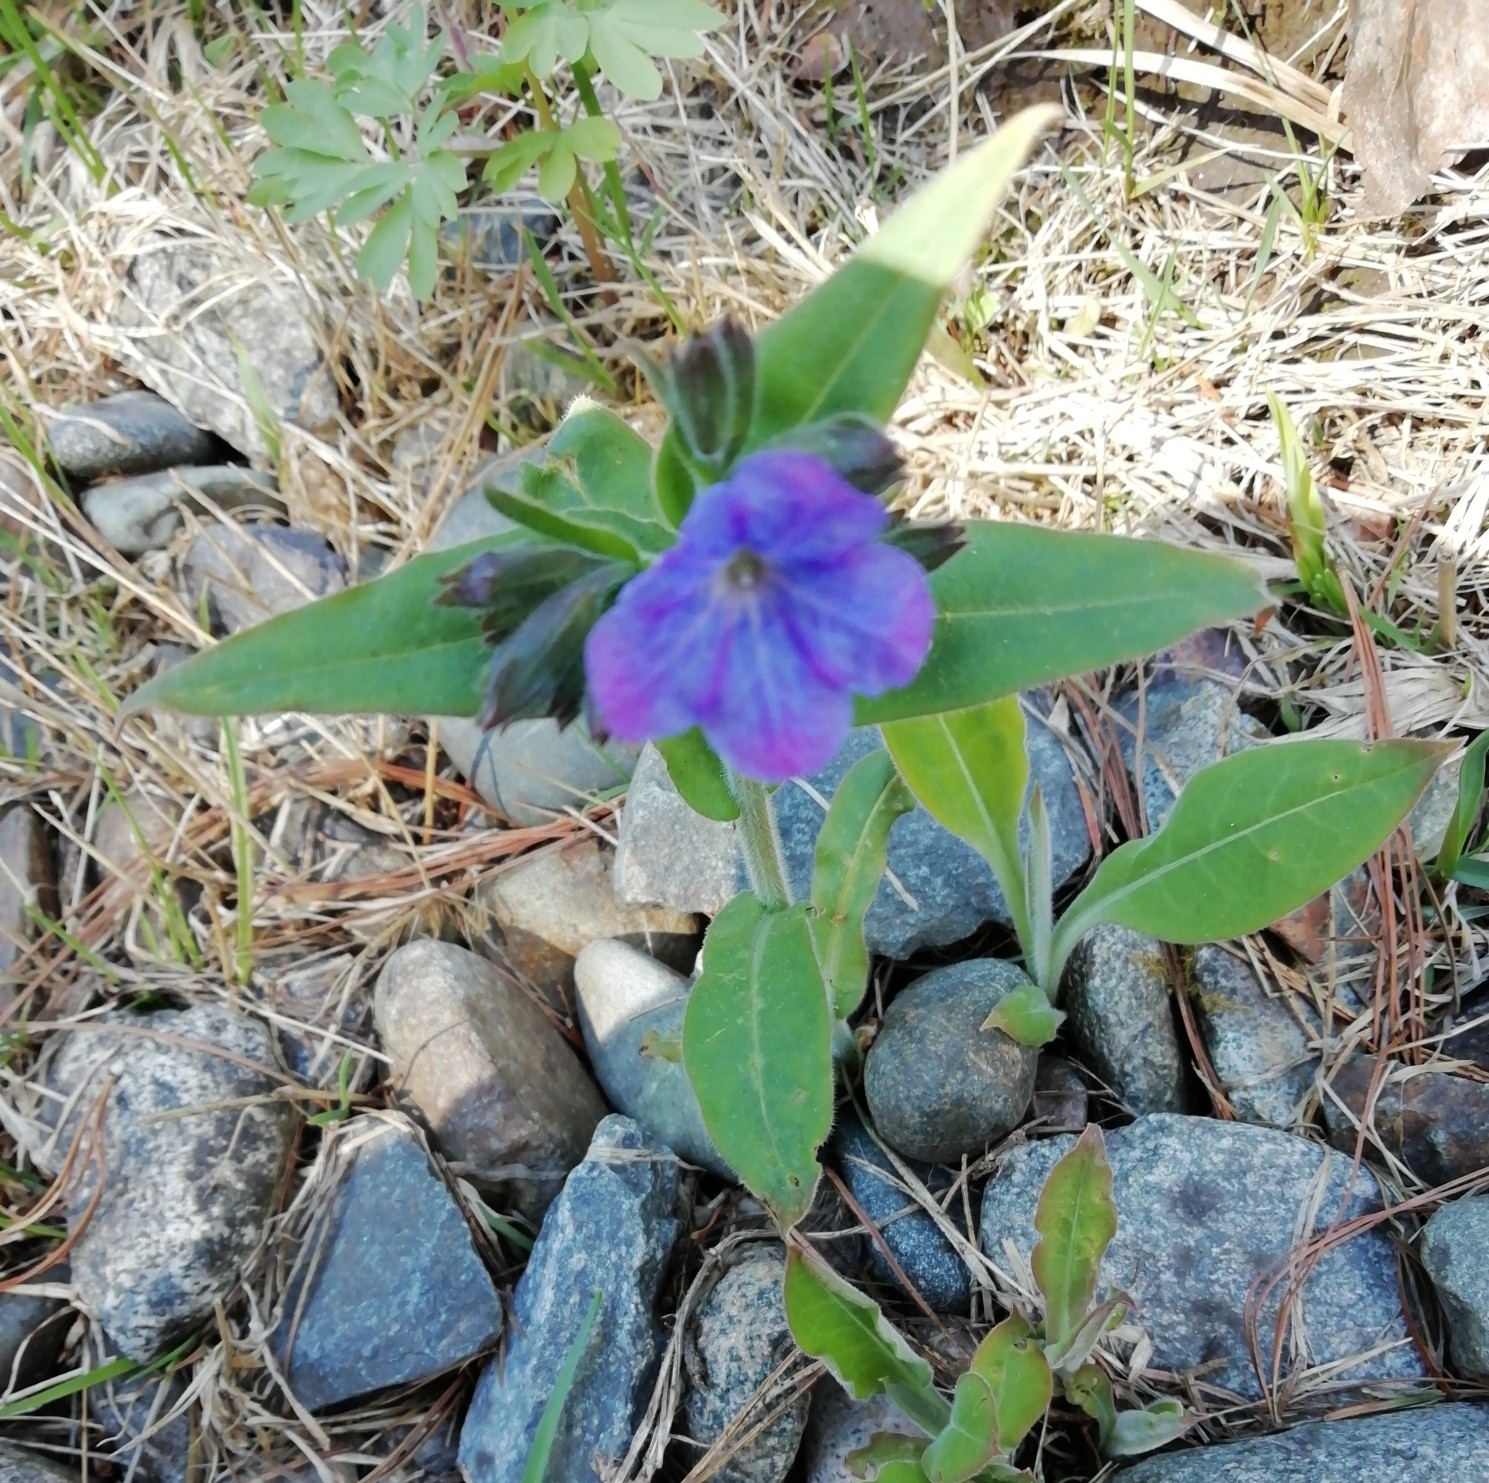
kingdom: Plantae
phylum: Tracheophyta
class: Magnoliopsida
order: Boraginales
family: Boraginaceae
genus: Pulmonaria
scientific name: Pulmonaria mollis
